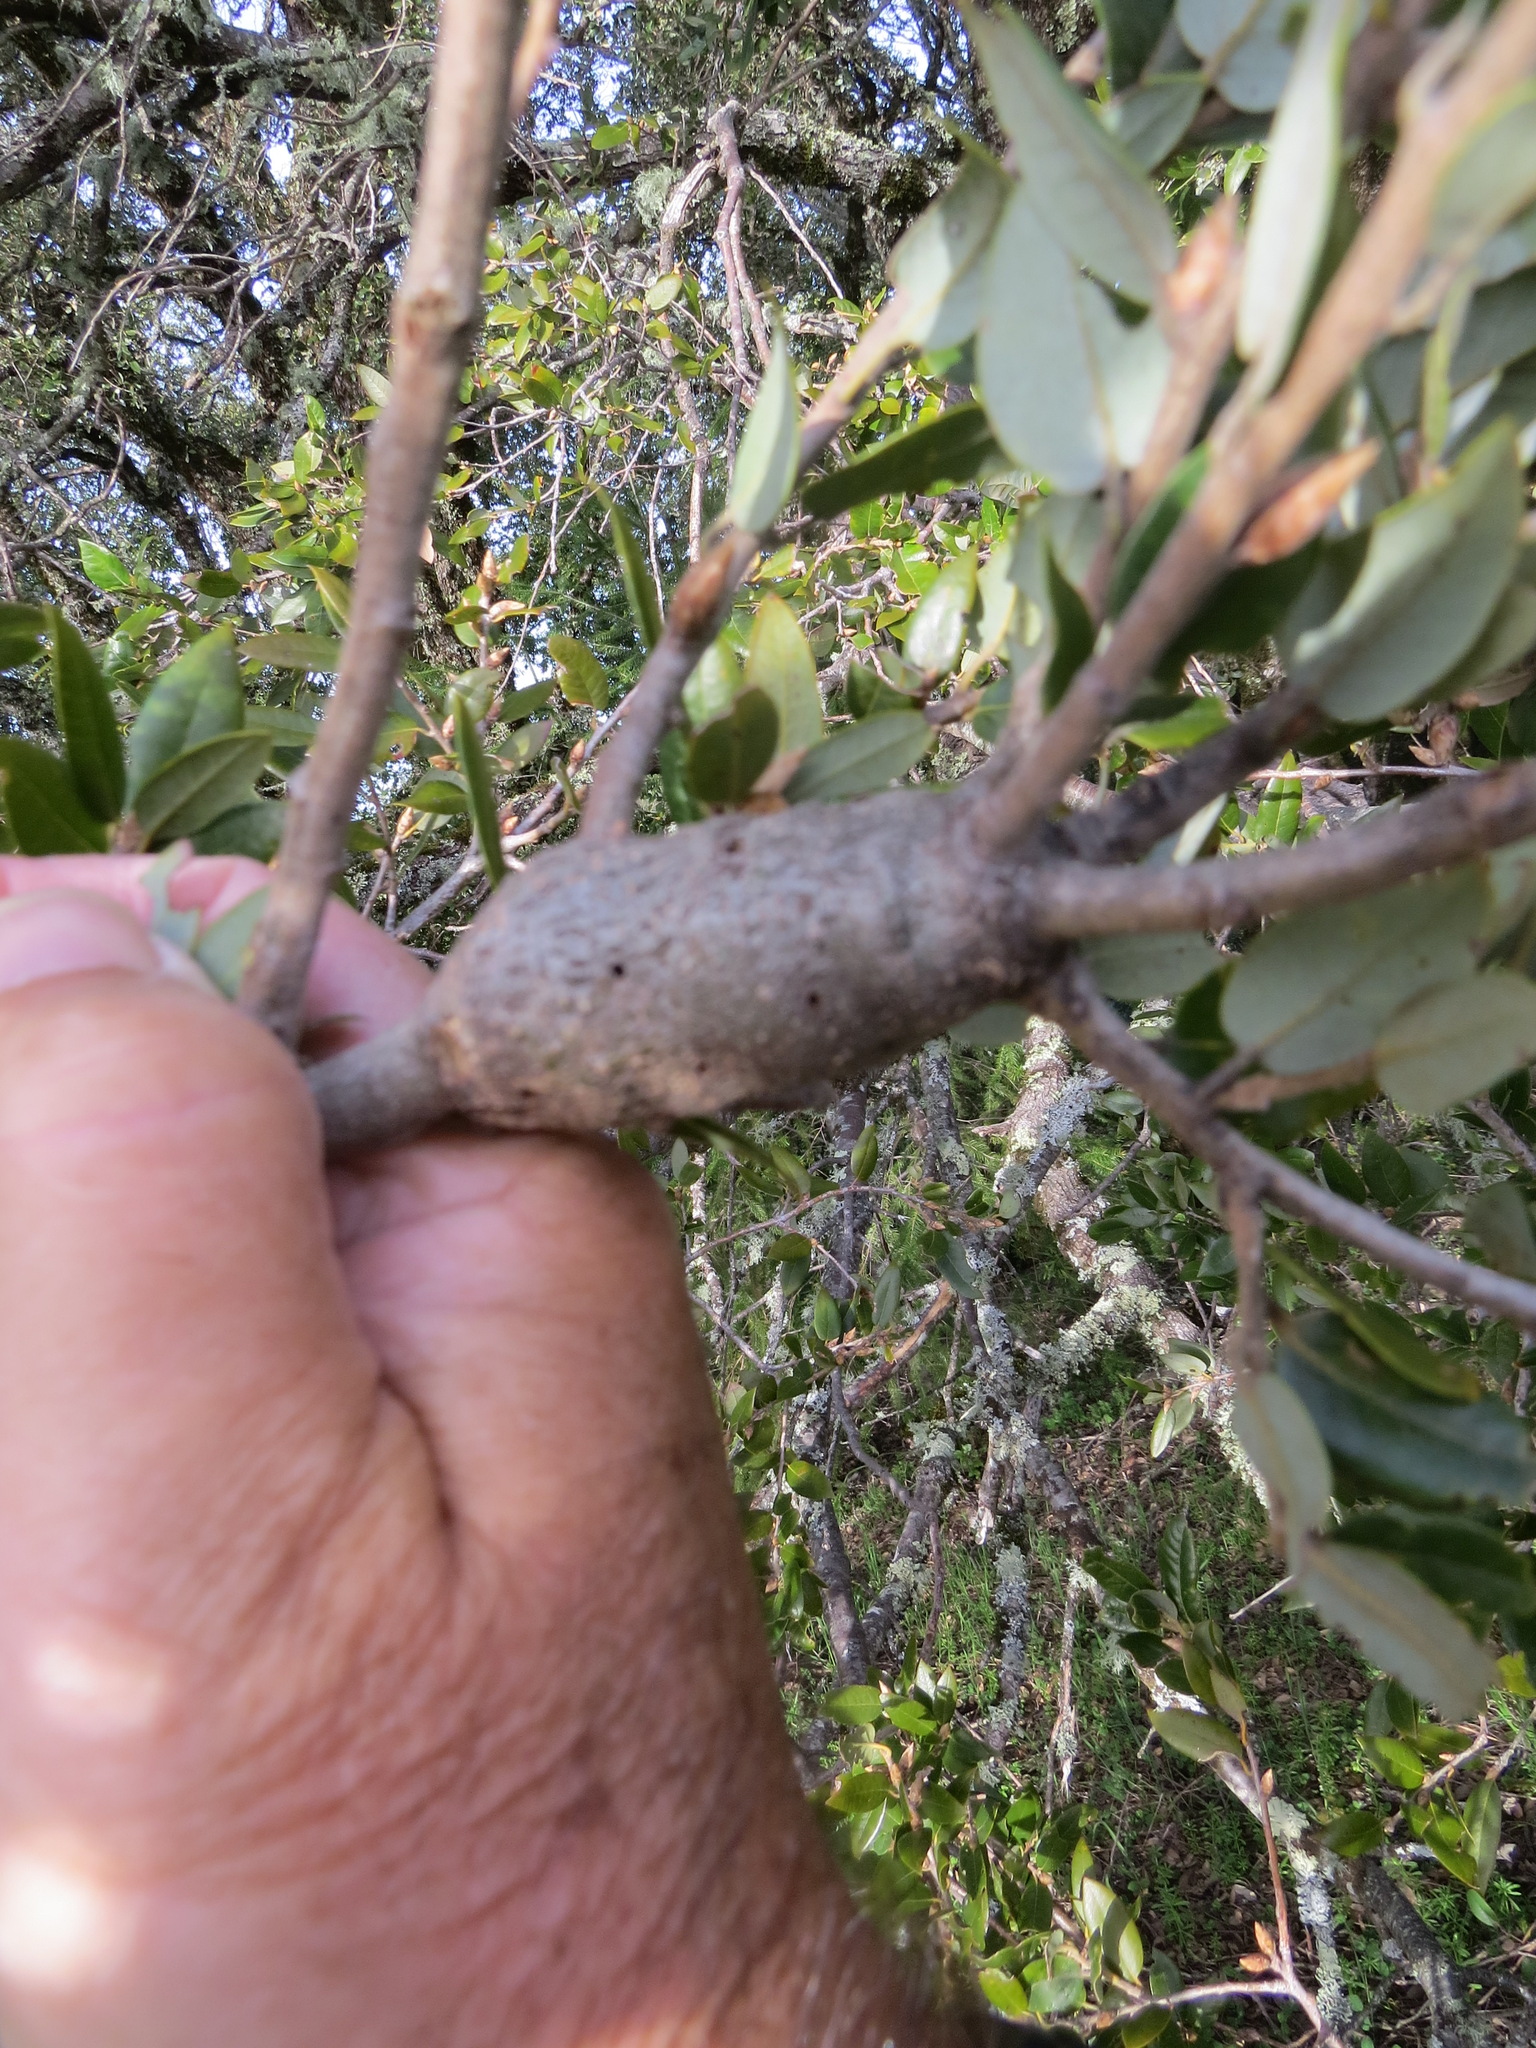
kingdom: Animalia
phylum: Arthropoda
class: Insecta
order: Hymenoptera
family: Cynipidae
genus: Disholcaspis
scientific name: Disholcaspis spectabilis
